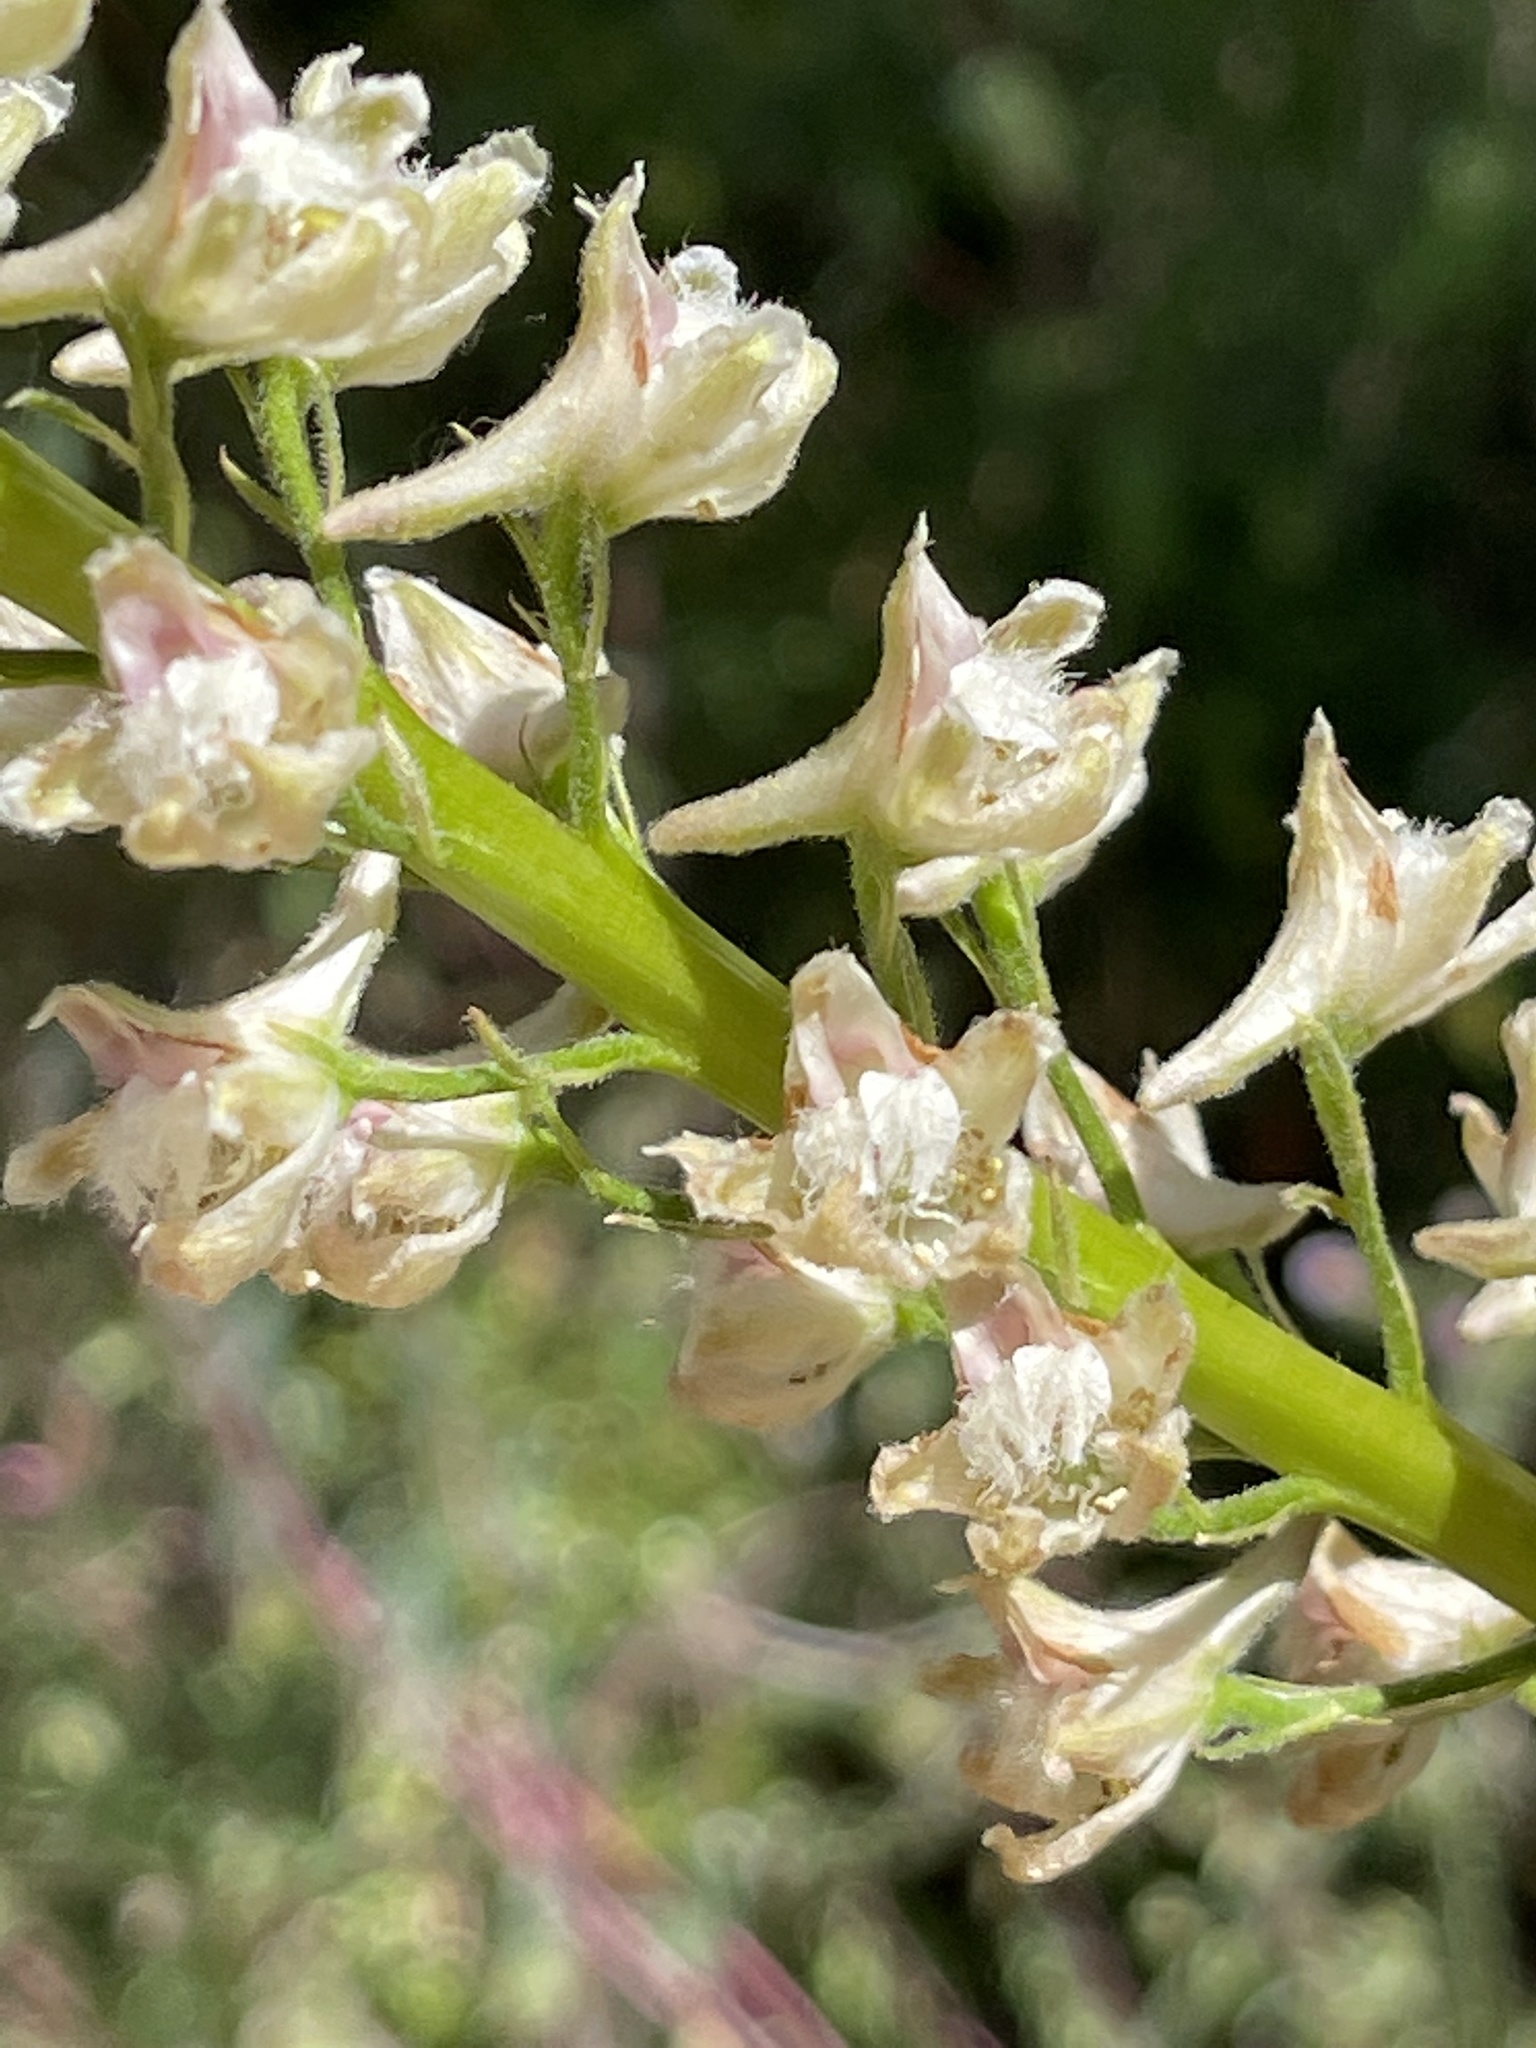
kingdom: Plantae
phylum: Tracheophyta
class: Magnoliopsida
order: Ranunculales
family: Ranunculaceae
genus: Delphinium
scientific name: Delphinium californicum
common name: California larkspur
